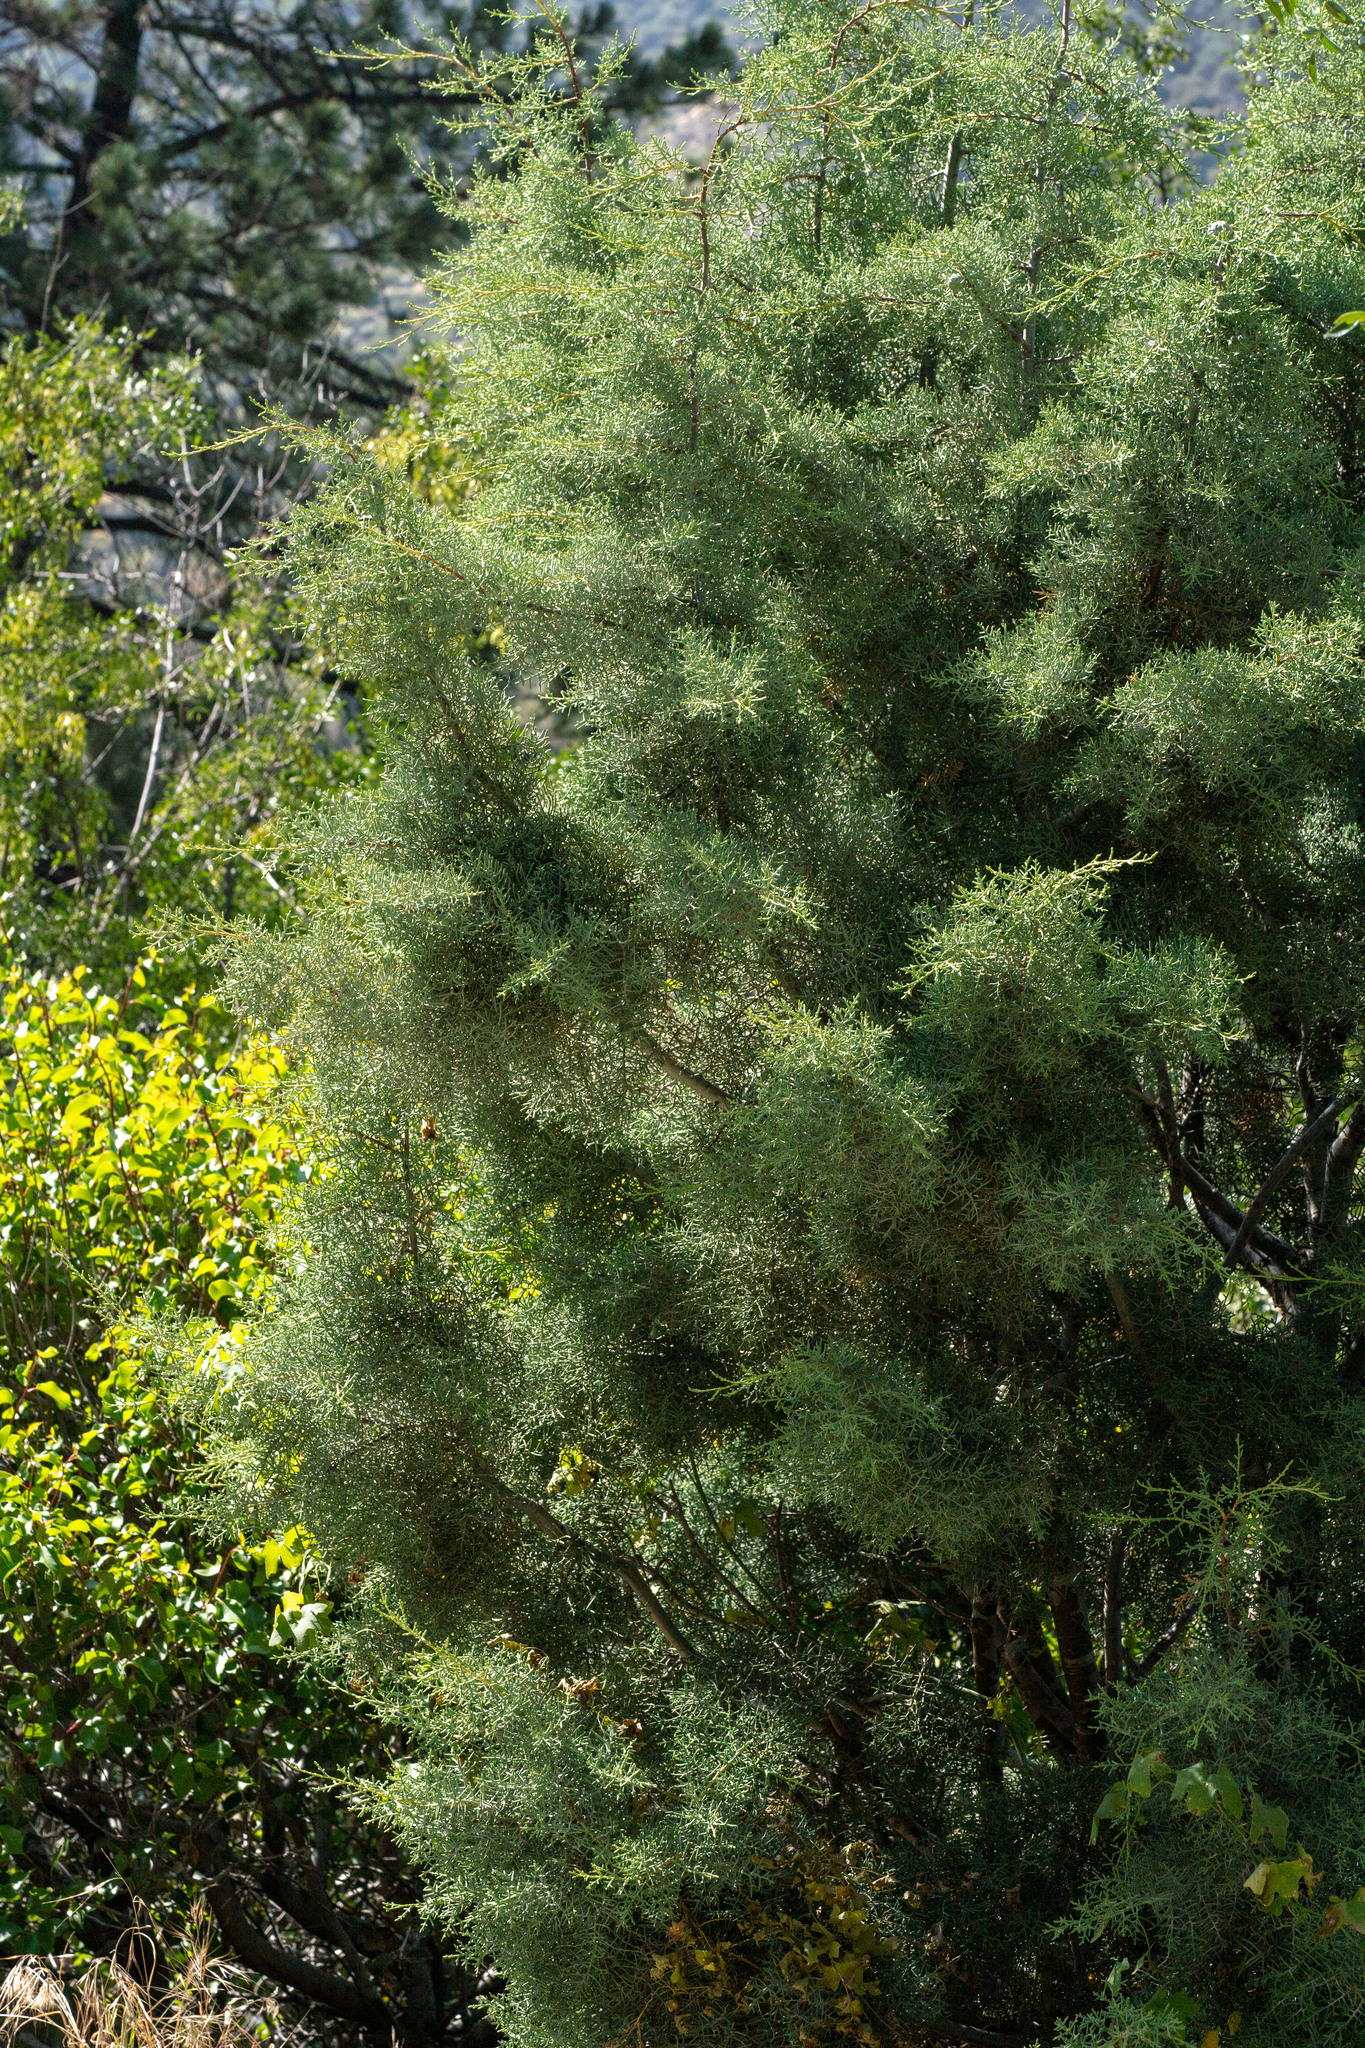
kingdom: Plantae
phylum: Tracheophyta
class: Magnoliopsida
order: Caryophyllales
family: Tamaricaceae
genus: Tamarix
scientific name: Tamarix
